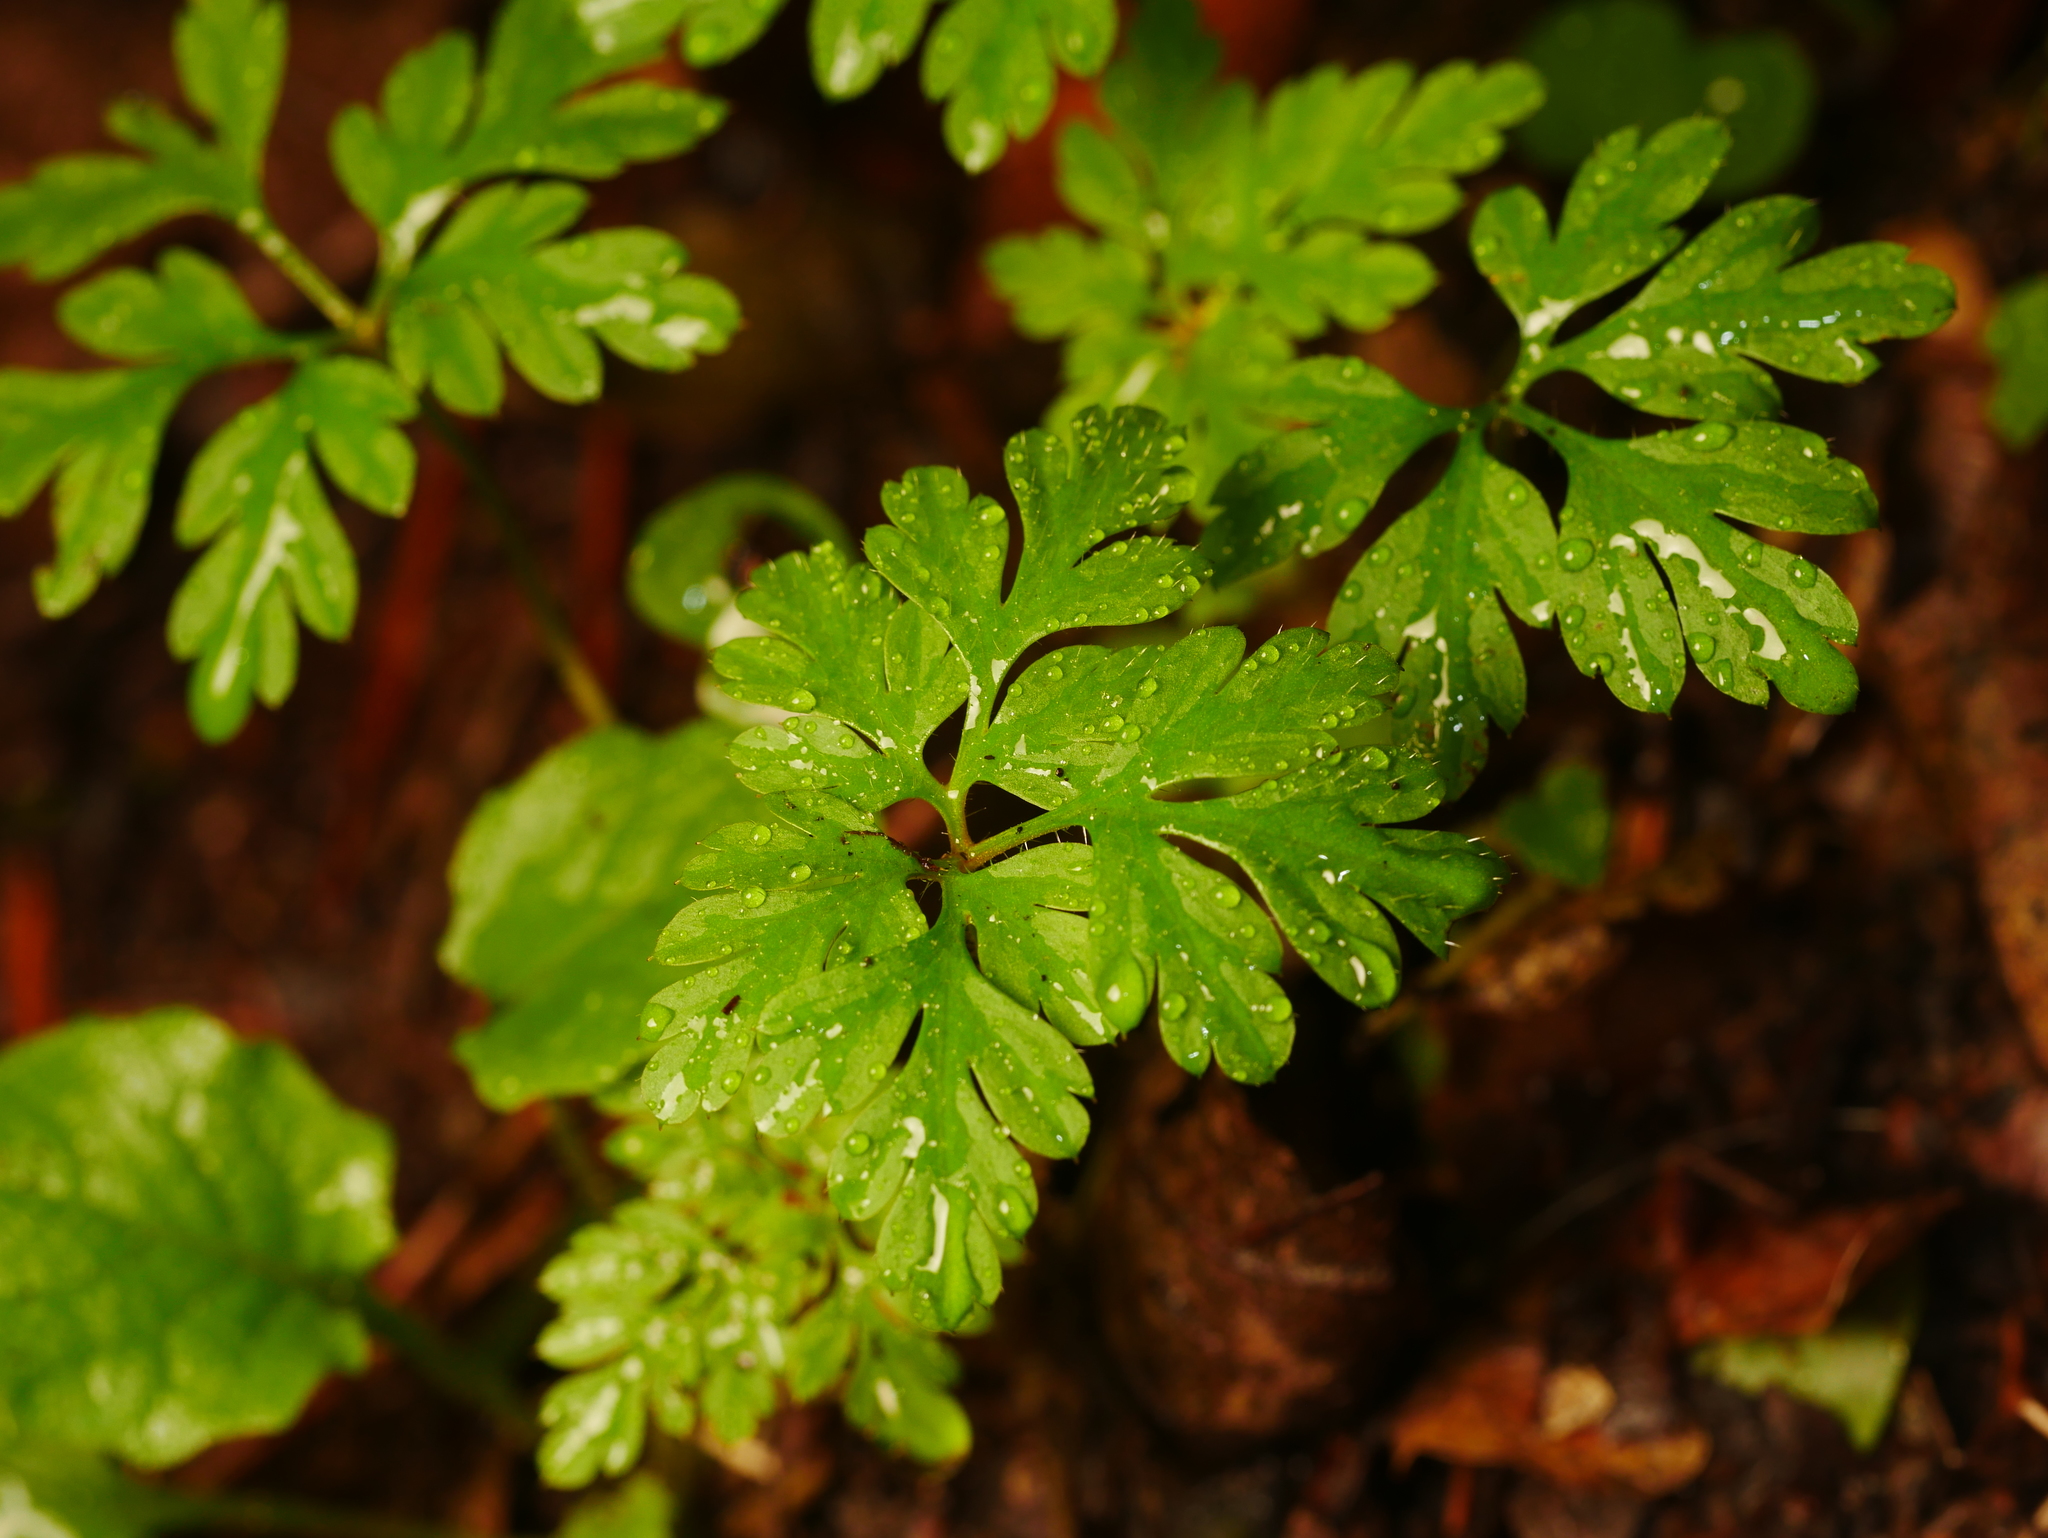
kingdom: Plantae
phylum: Tracheophyta
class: Magnoliopsida
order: Geraniales
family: Geraniaceae
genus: Geranium
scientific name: Geranium robertianum
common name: Herb-robert
